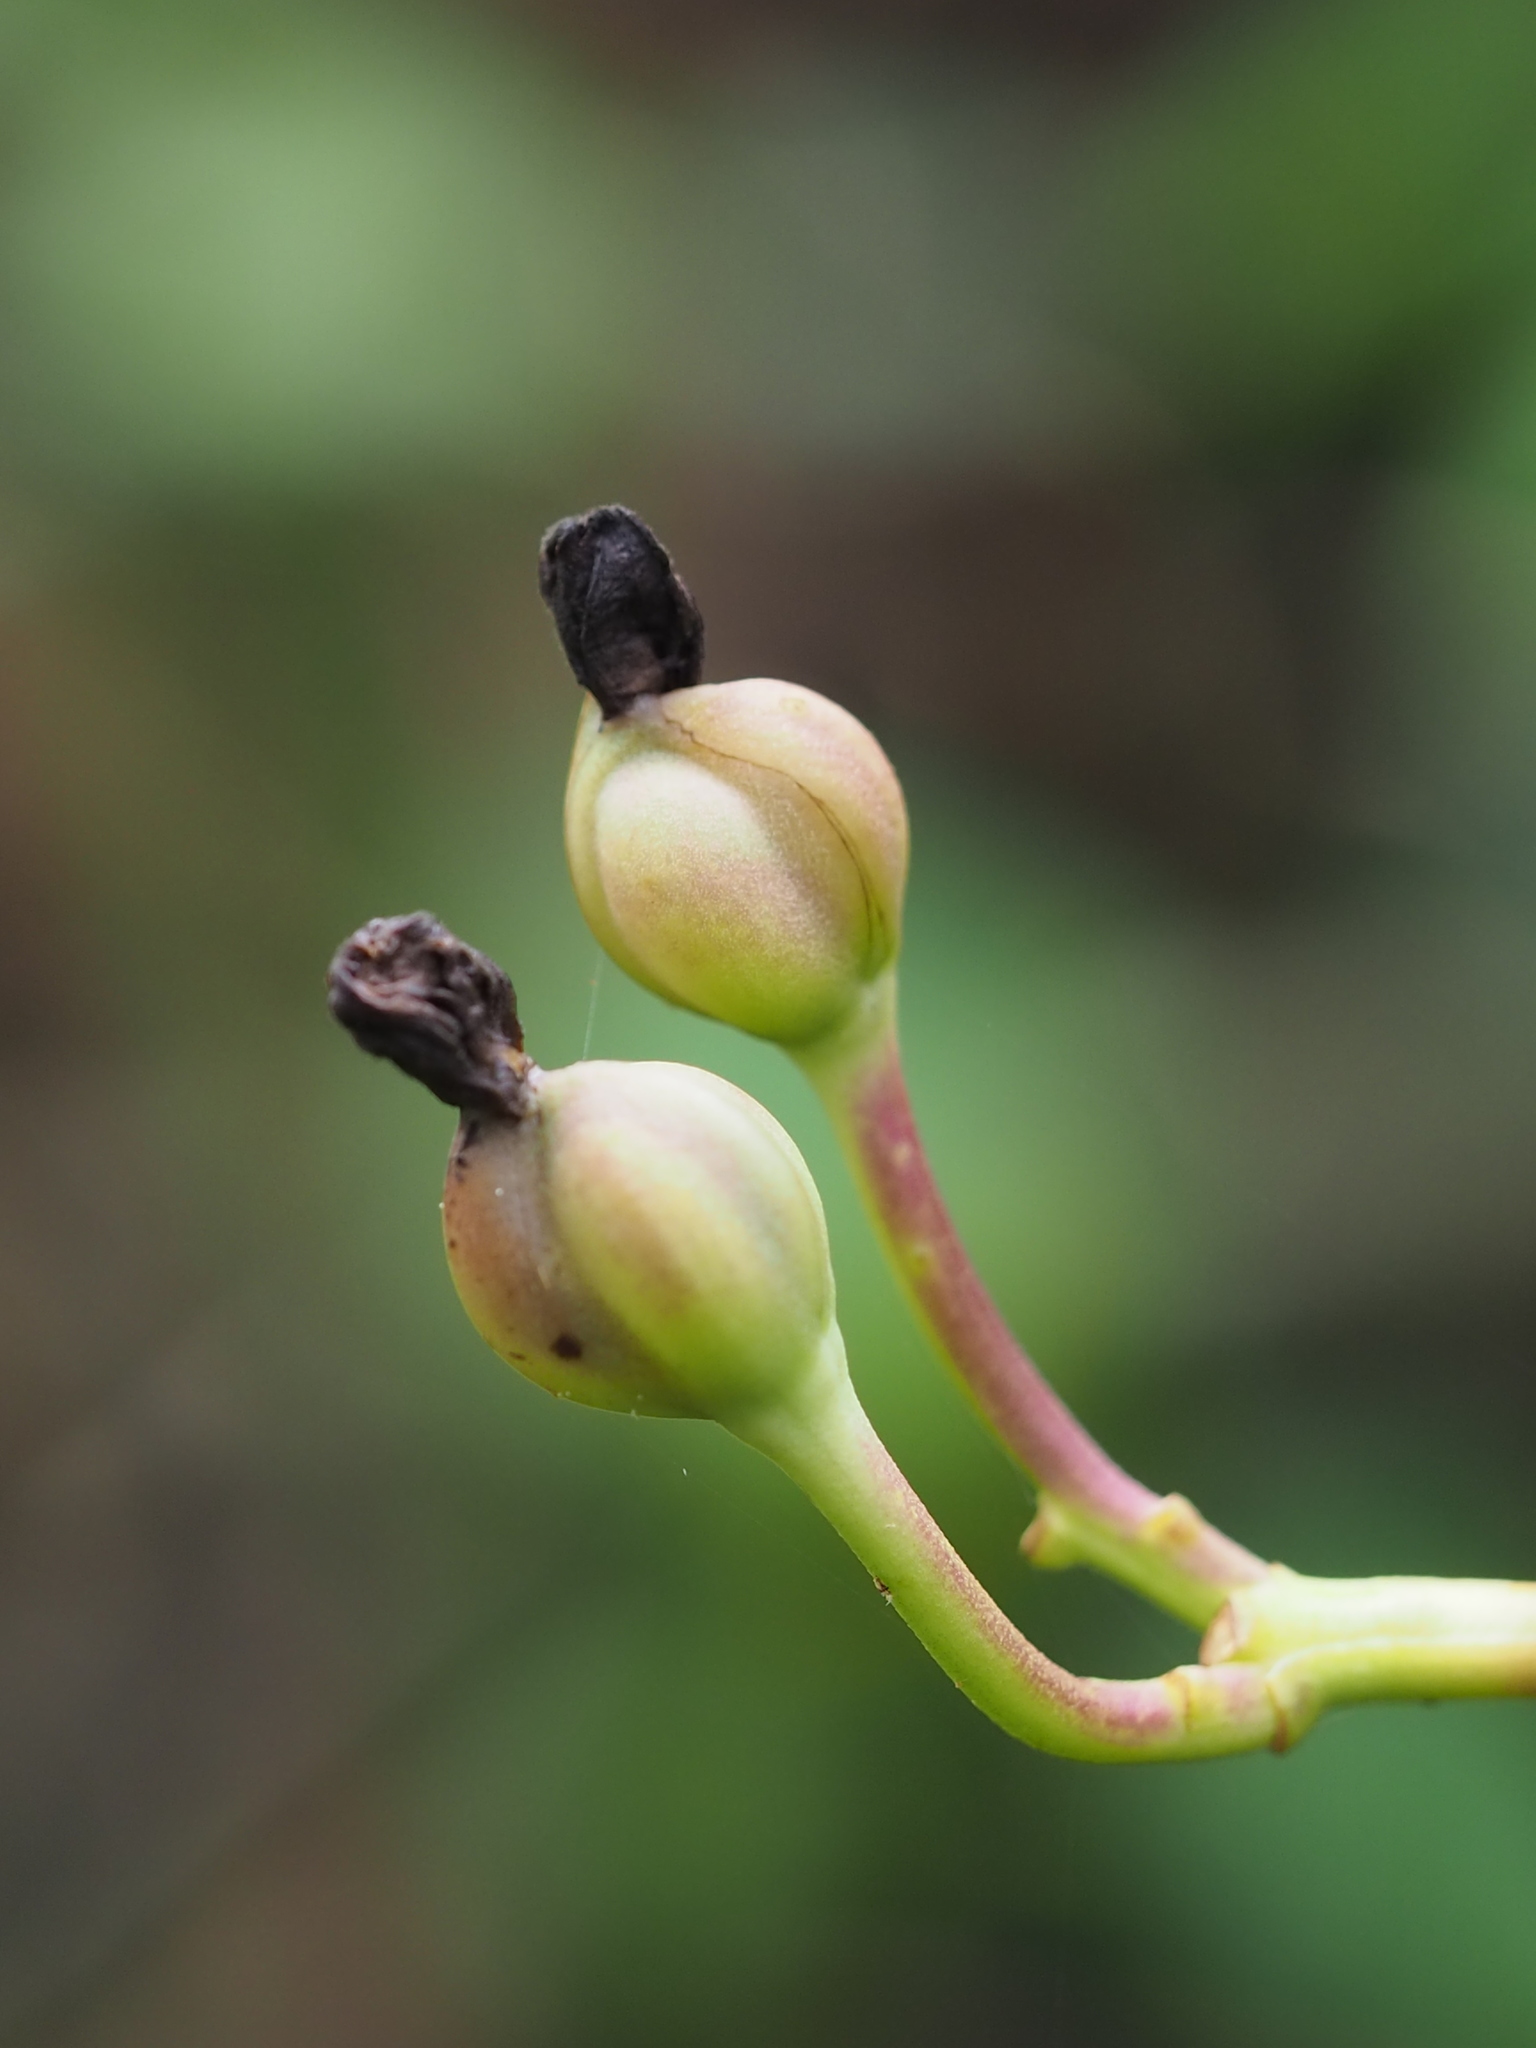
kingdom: Plantae
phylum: Tracheophyta
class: Magnoliopsida
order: Solanales
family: Convolvulaceae
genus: Ipomoea
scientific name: Ipomoea mauritiana
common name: Mauritanian convolvulus
